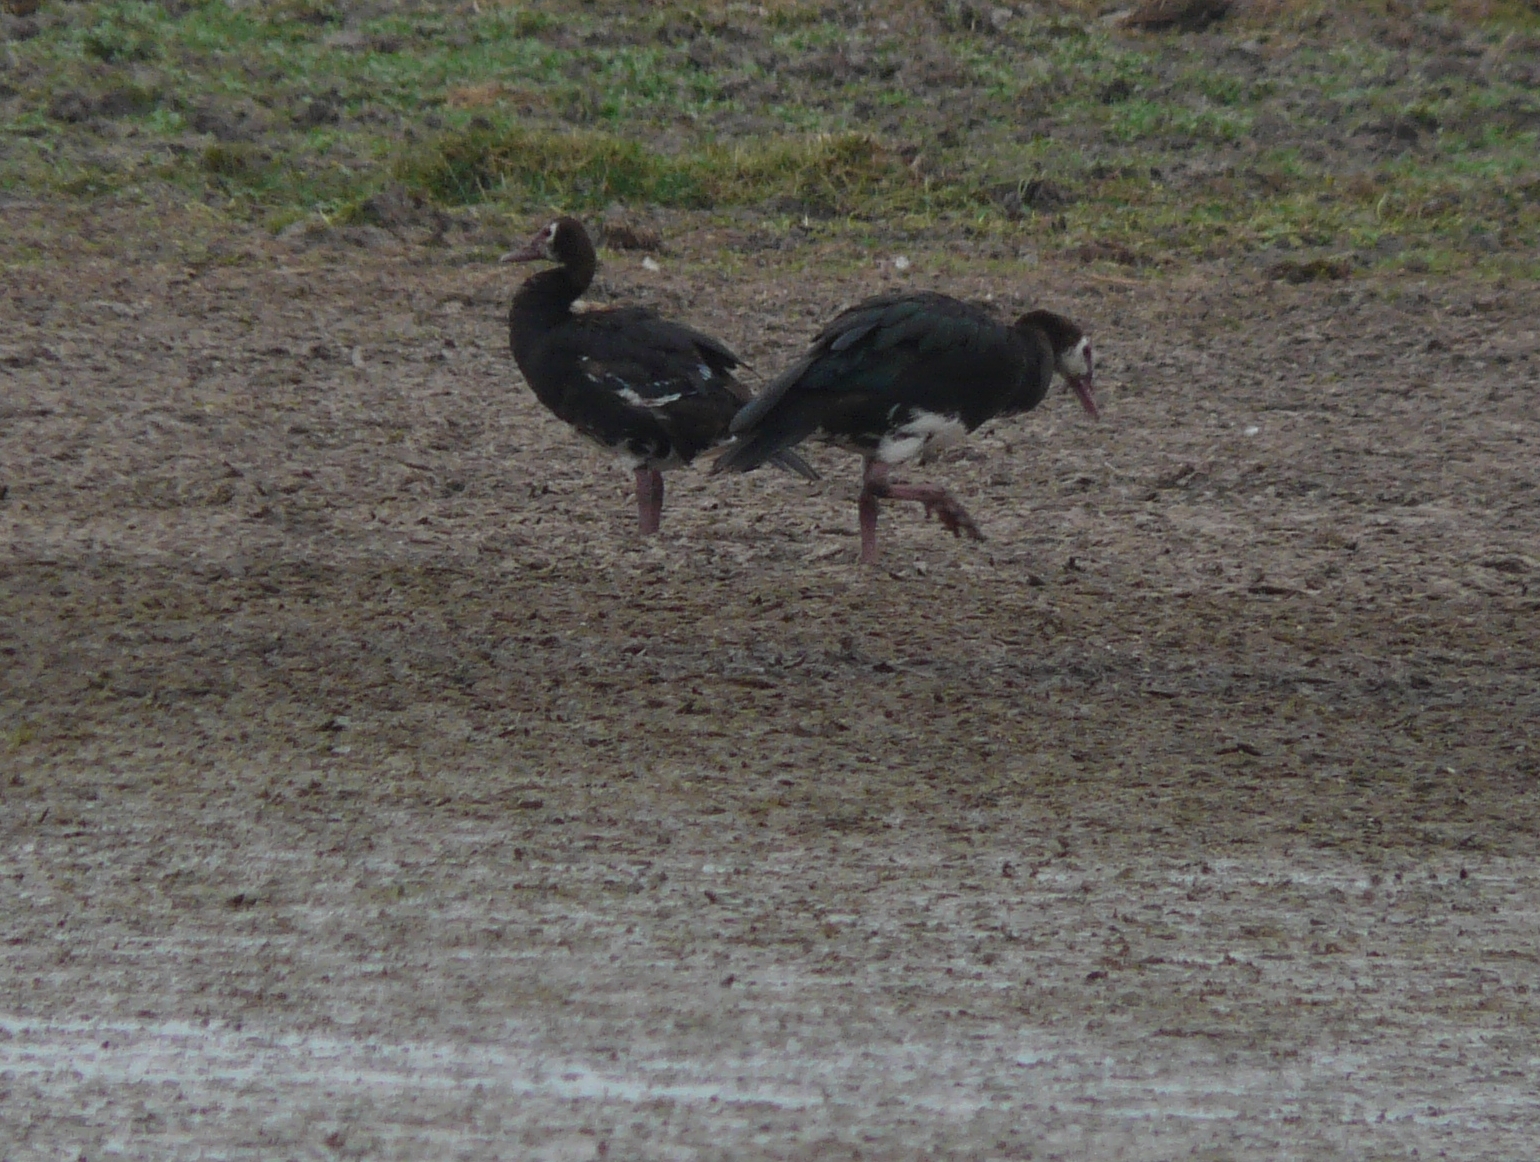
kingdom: Animalia
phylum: Chordata
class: Aves
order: Anseriformes
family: Anatidae
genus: Plectropterus
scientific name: Plectropterus gambensis
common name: Spur-winged goose
